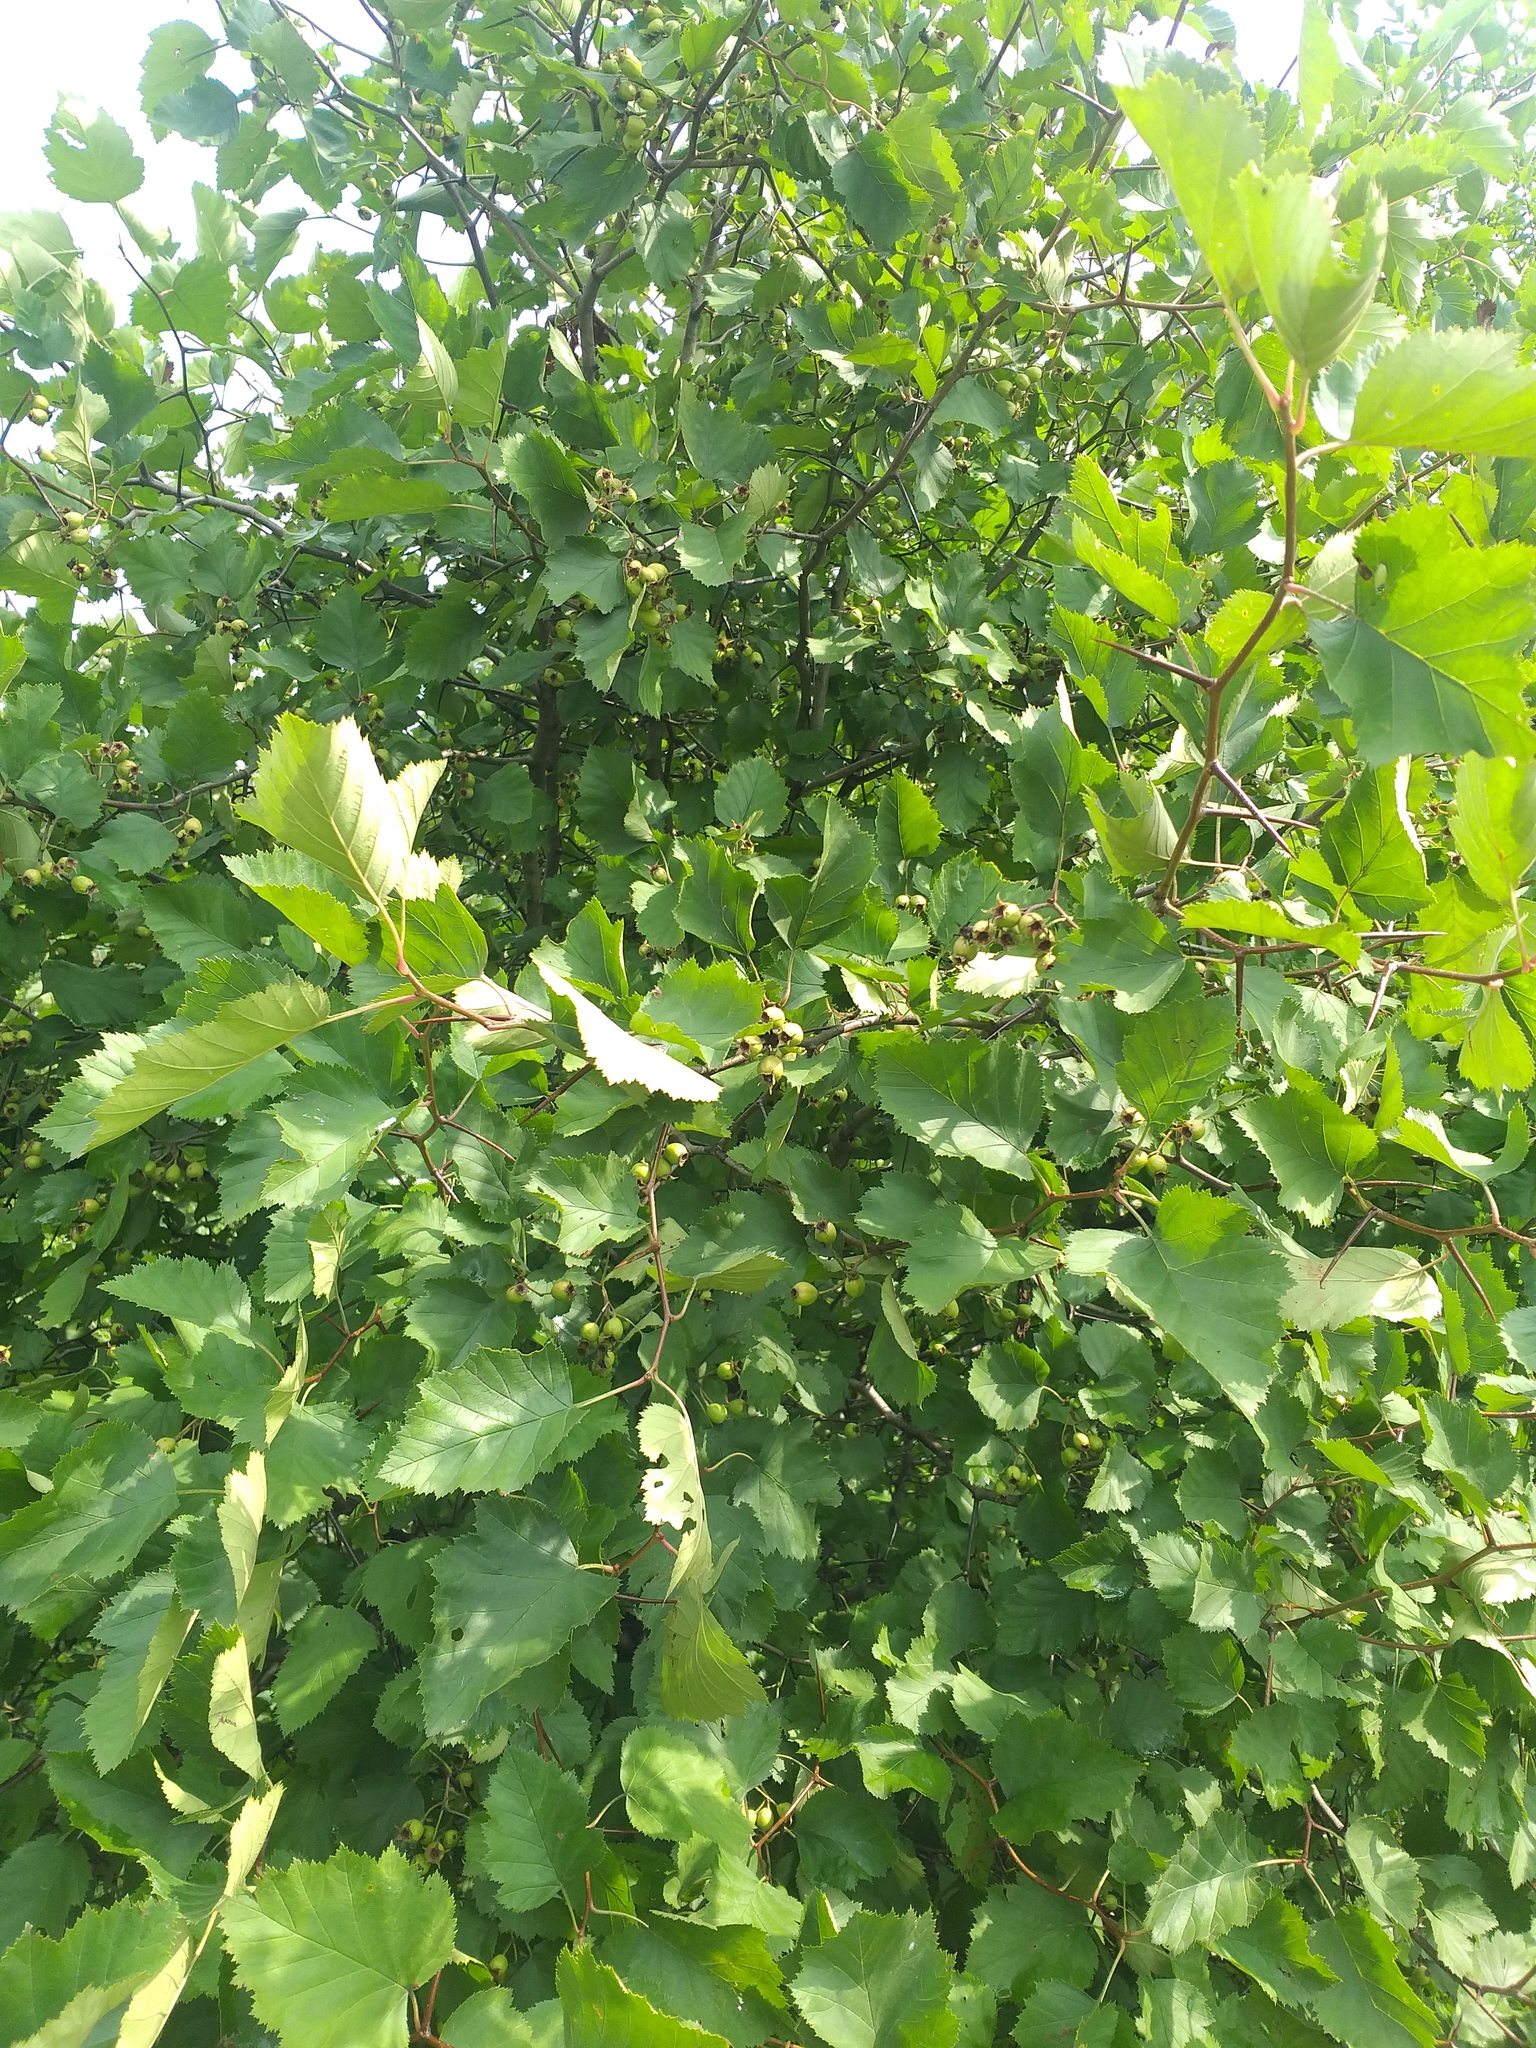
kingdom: Plantae
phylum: Tracheophyta
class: Magnoliopsida
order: Rosales
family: Rosaceae
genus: Crataegus
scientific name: Crataegus submollis
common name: Hairy cockspurthorn
